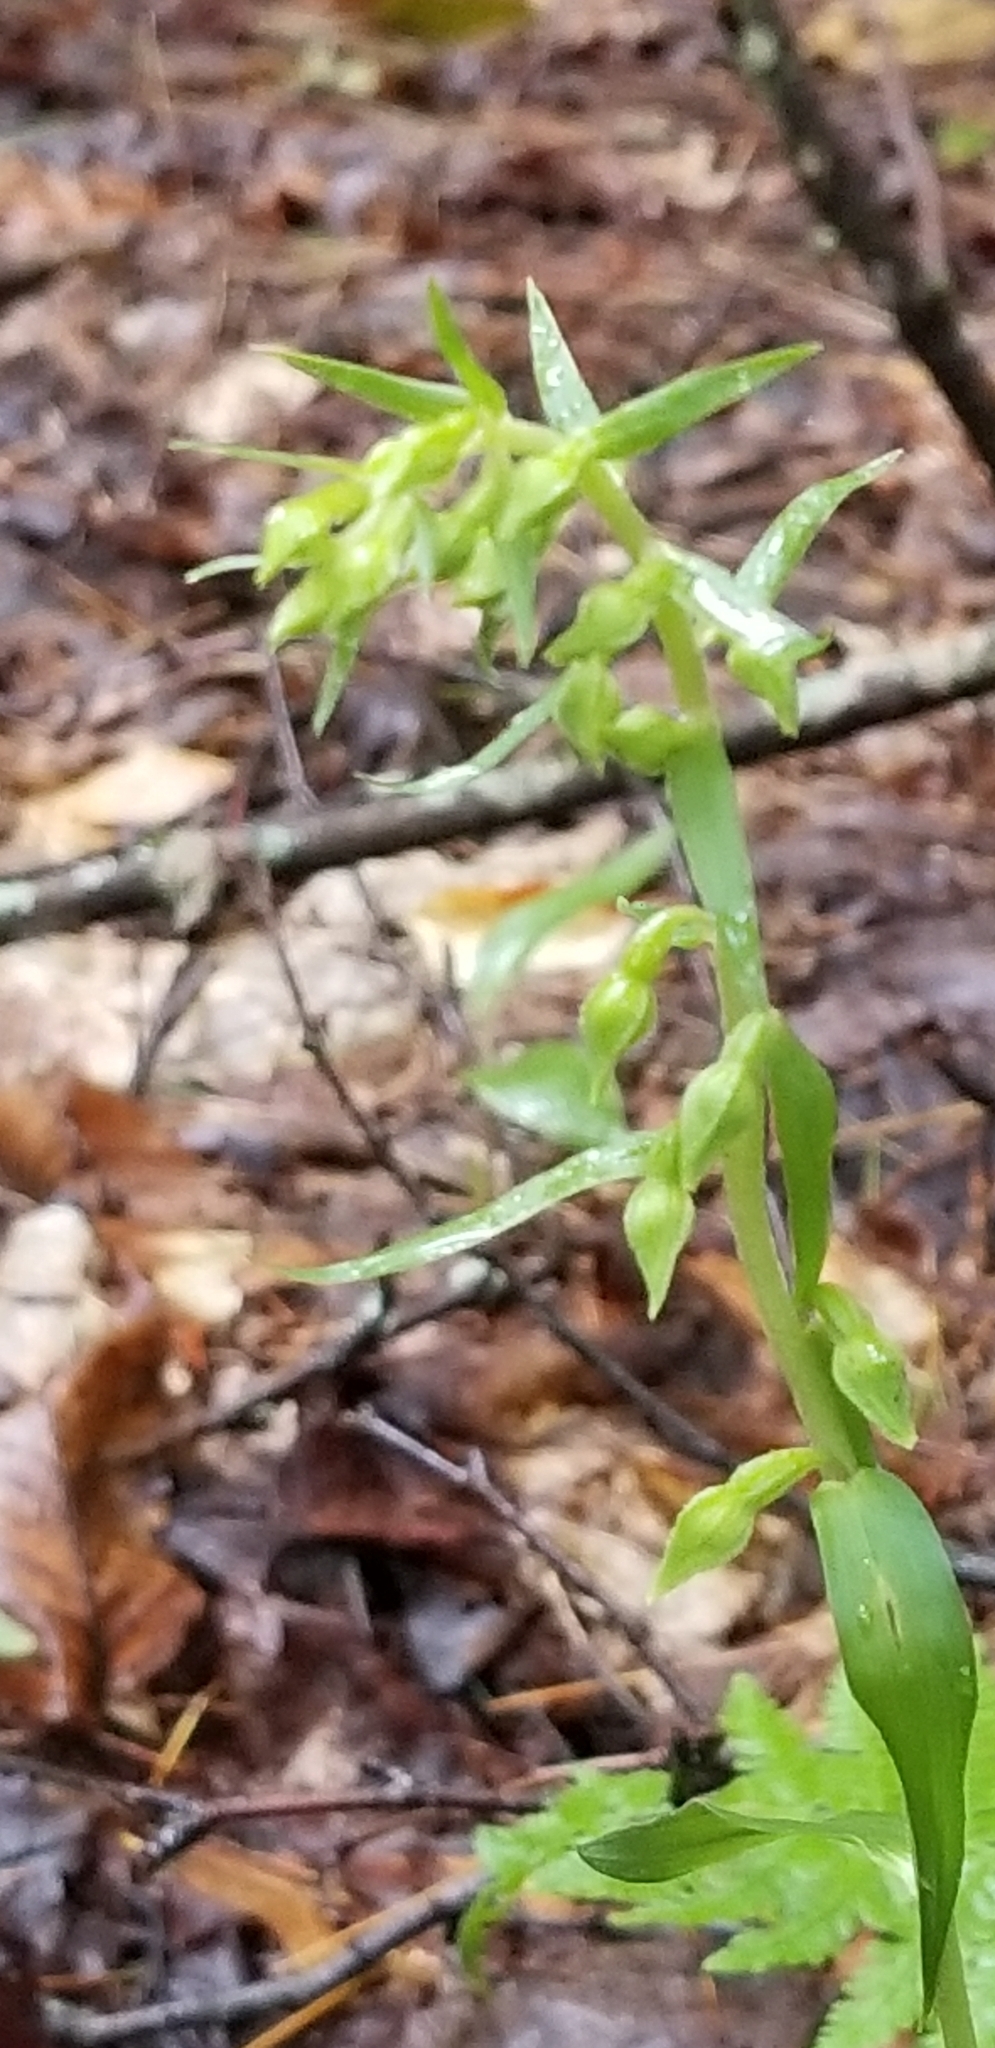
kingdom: Plantae
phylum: Tracheophyta
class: Liliopsida
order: Asparagales
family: Orchidaceae
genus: Epipactis
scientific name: Epipactis helleborine
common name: Broad-leaved helleborine
